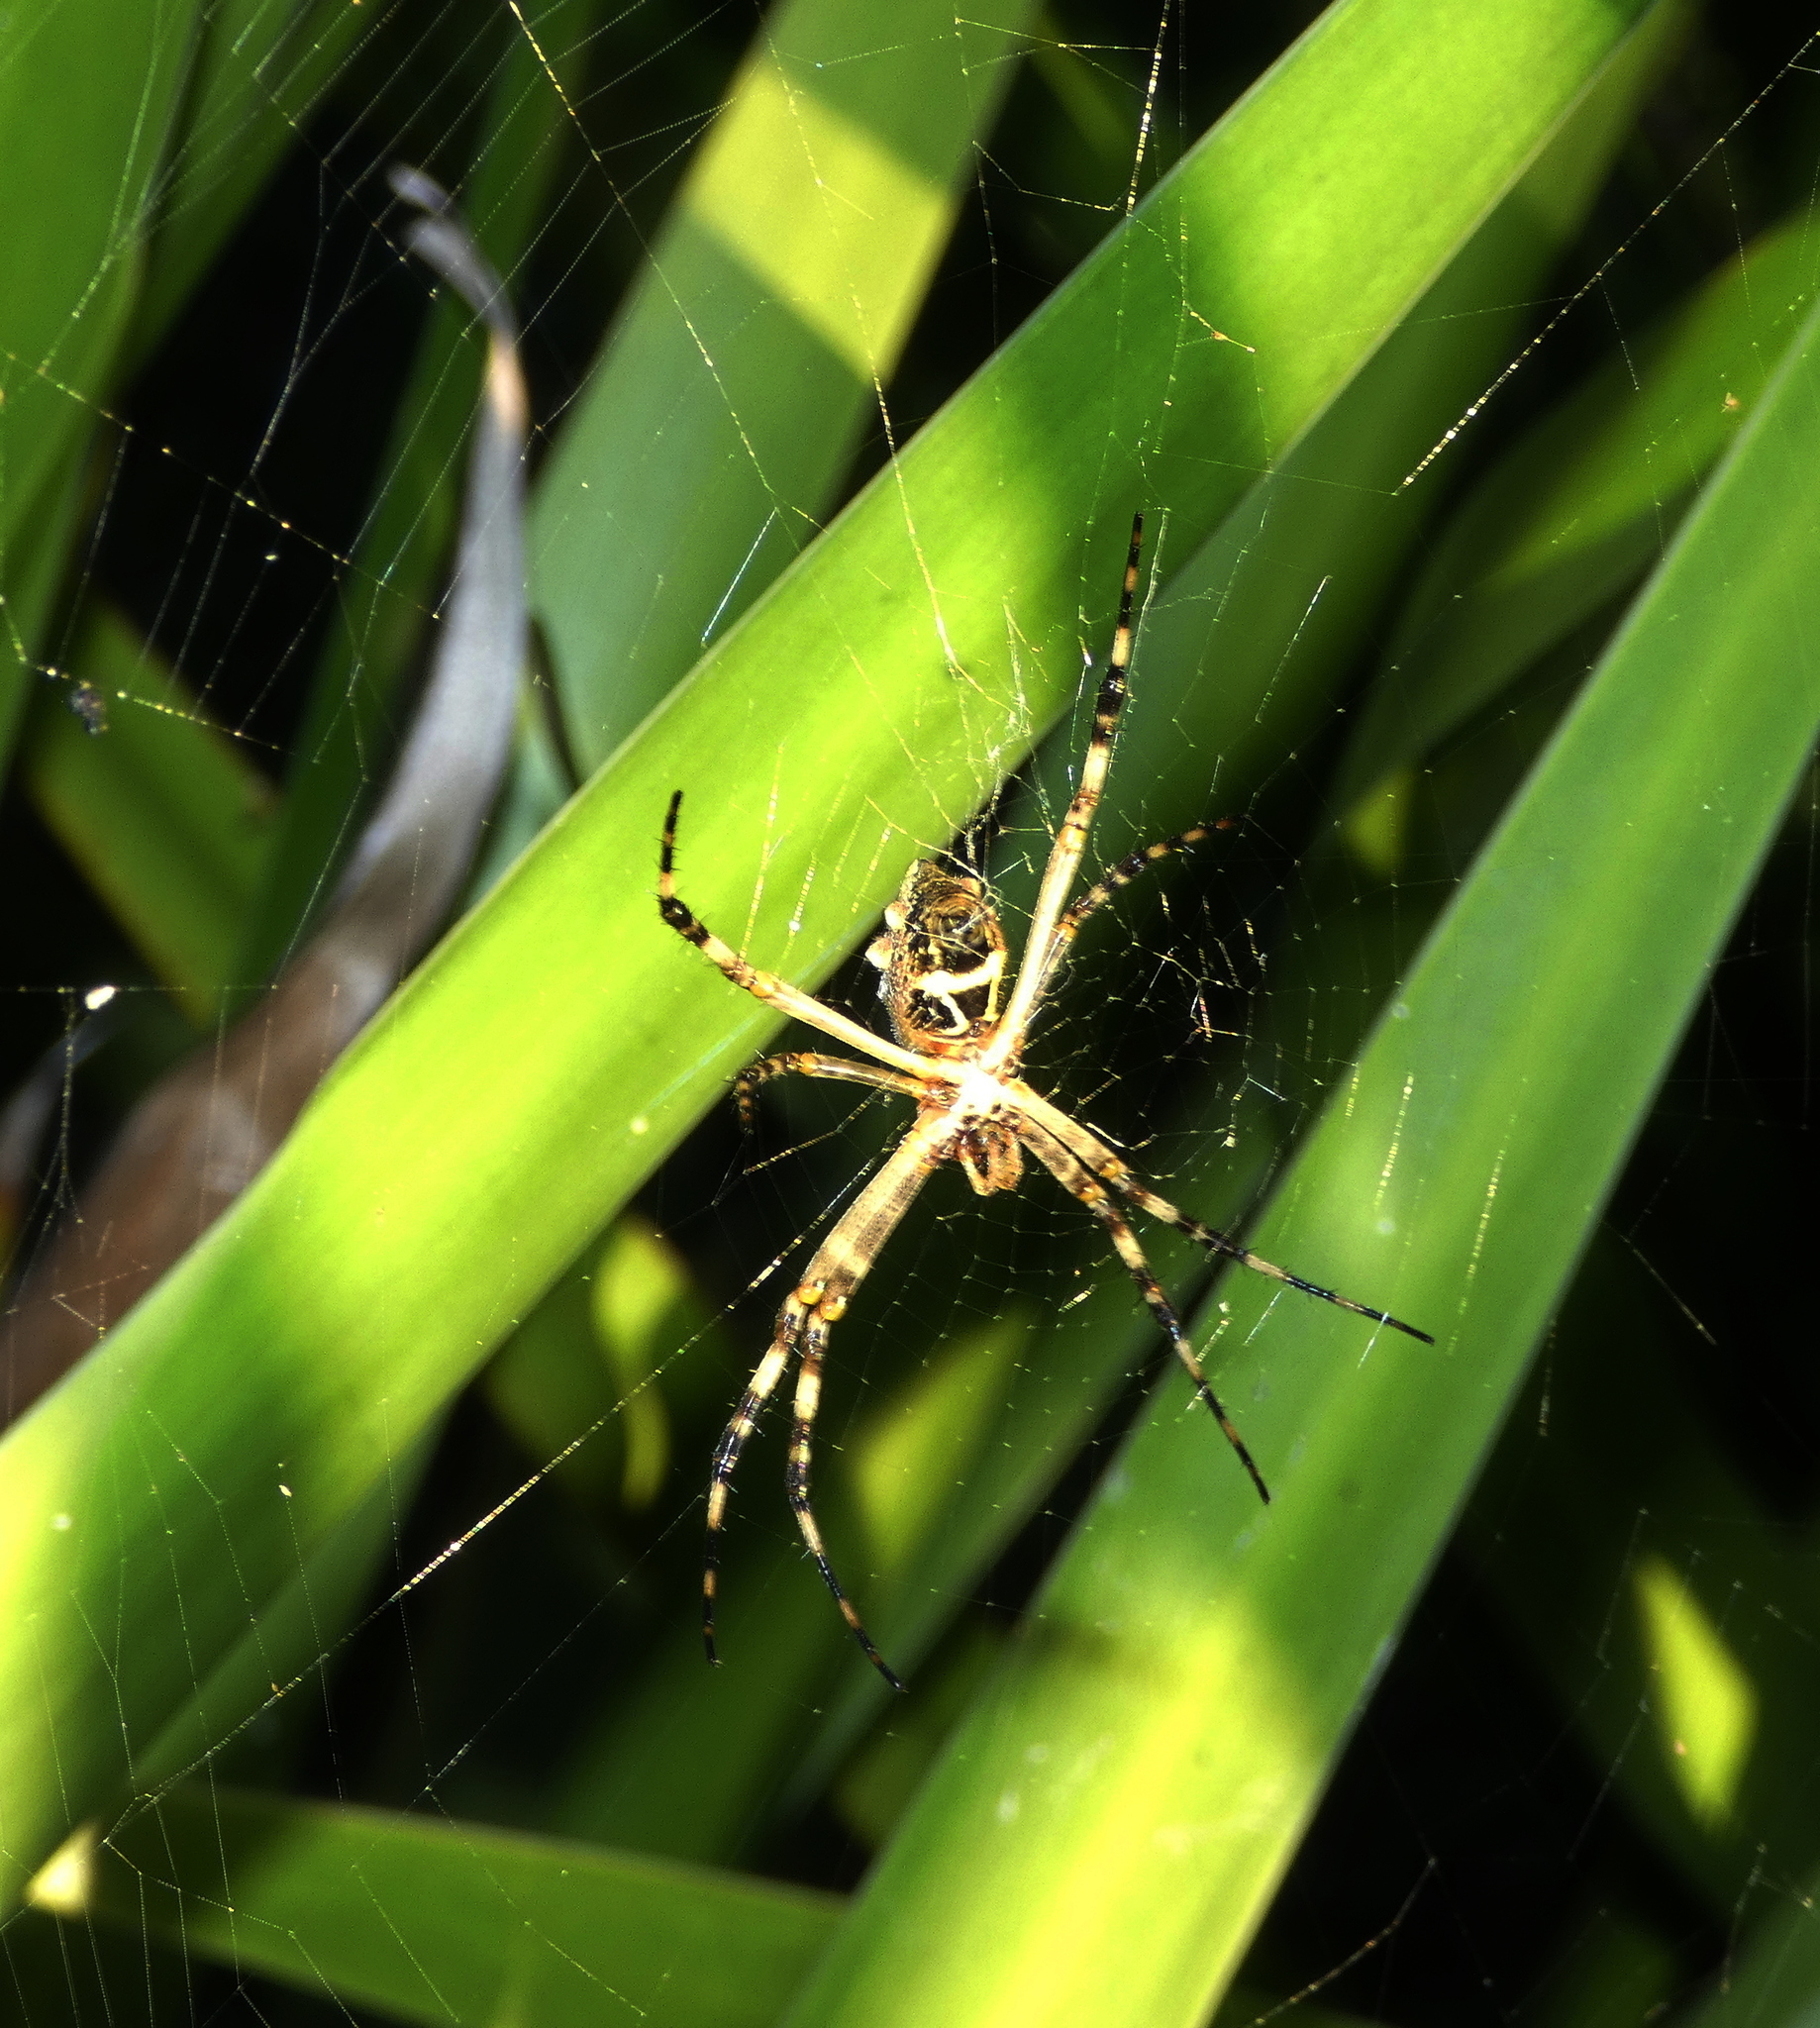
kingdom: Animalia
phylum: Arthropoda
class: Arachnida
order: Araneae
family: Araneidae
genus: Argiope
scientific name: Argiope argentata
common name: Orb weavers
